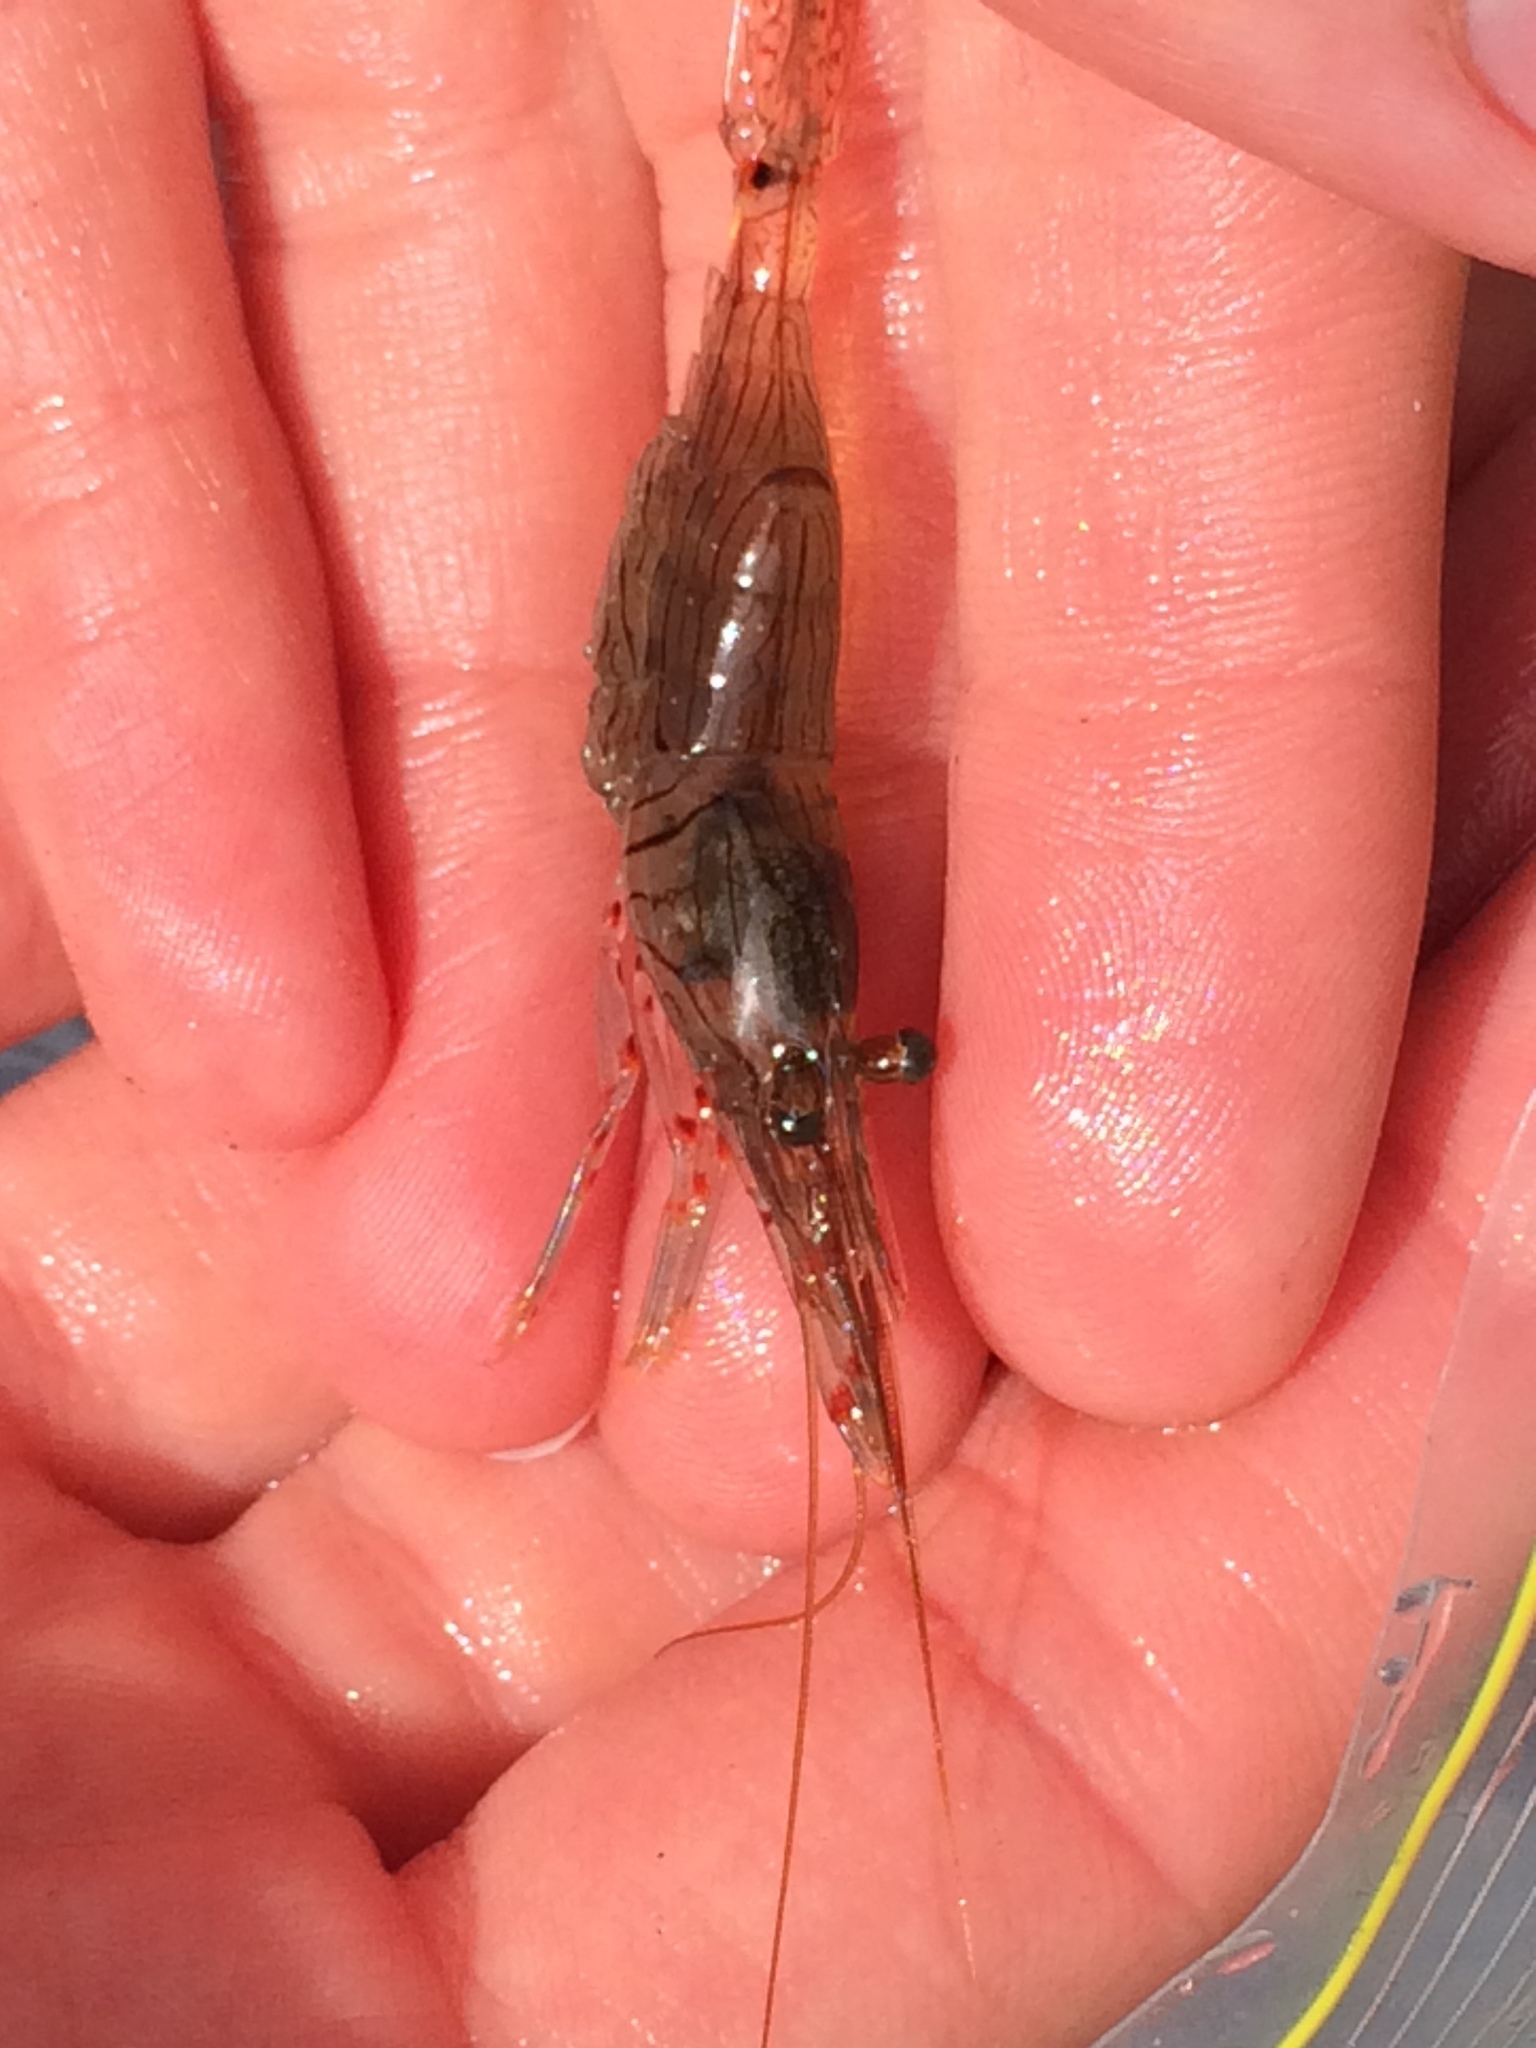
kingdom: Animalia
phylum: Arthropoda
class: Malacostraca
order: Decapoda
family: Palaemonidae
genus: Palaemon
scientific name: Palaemon affinis
